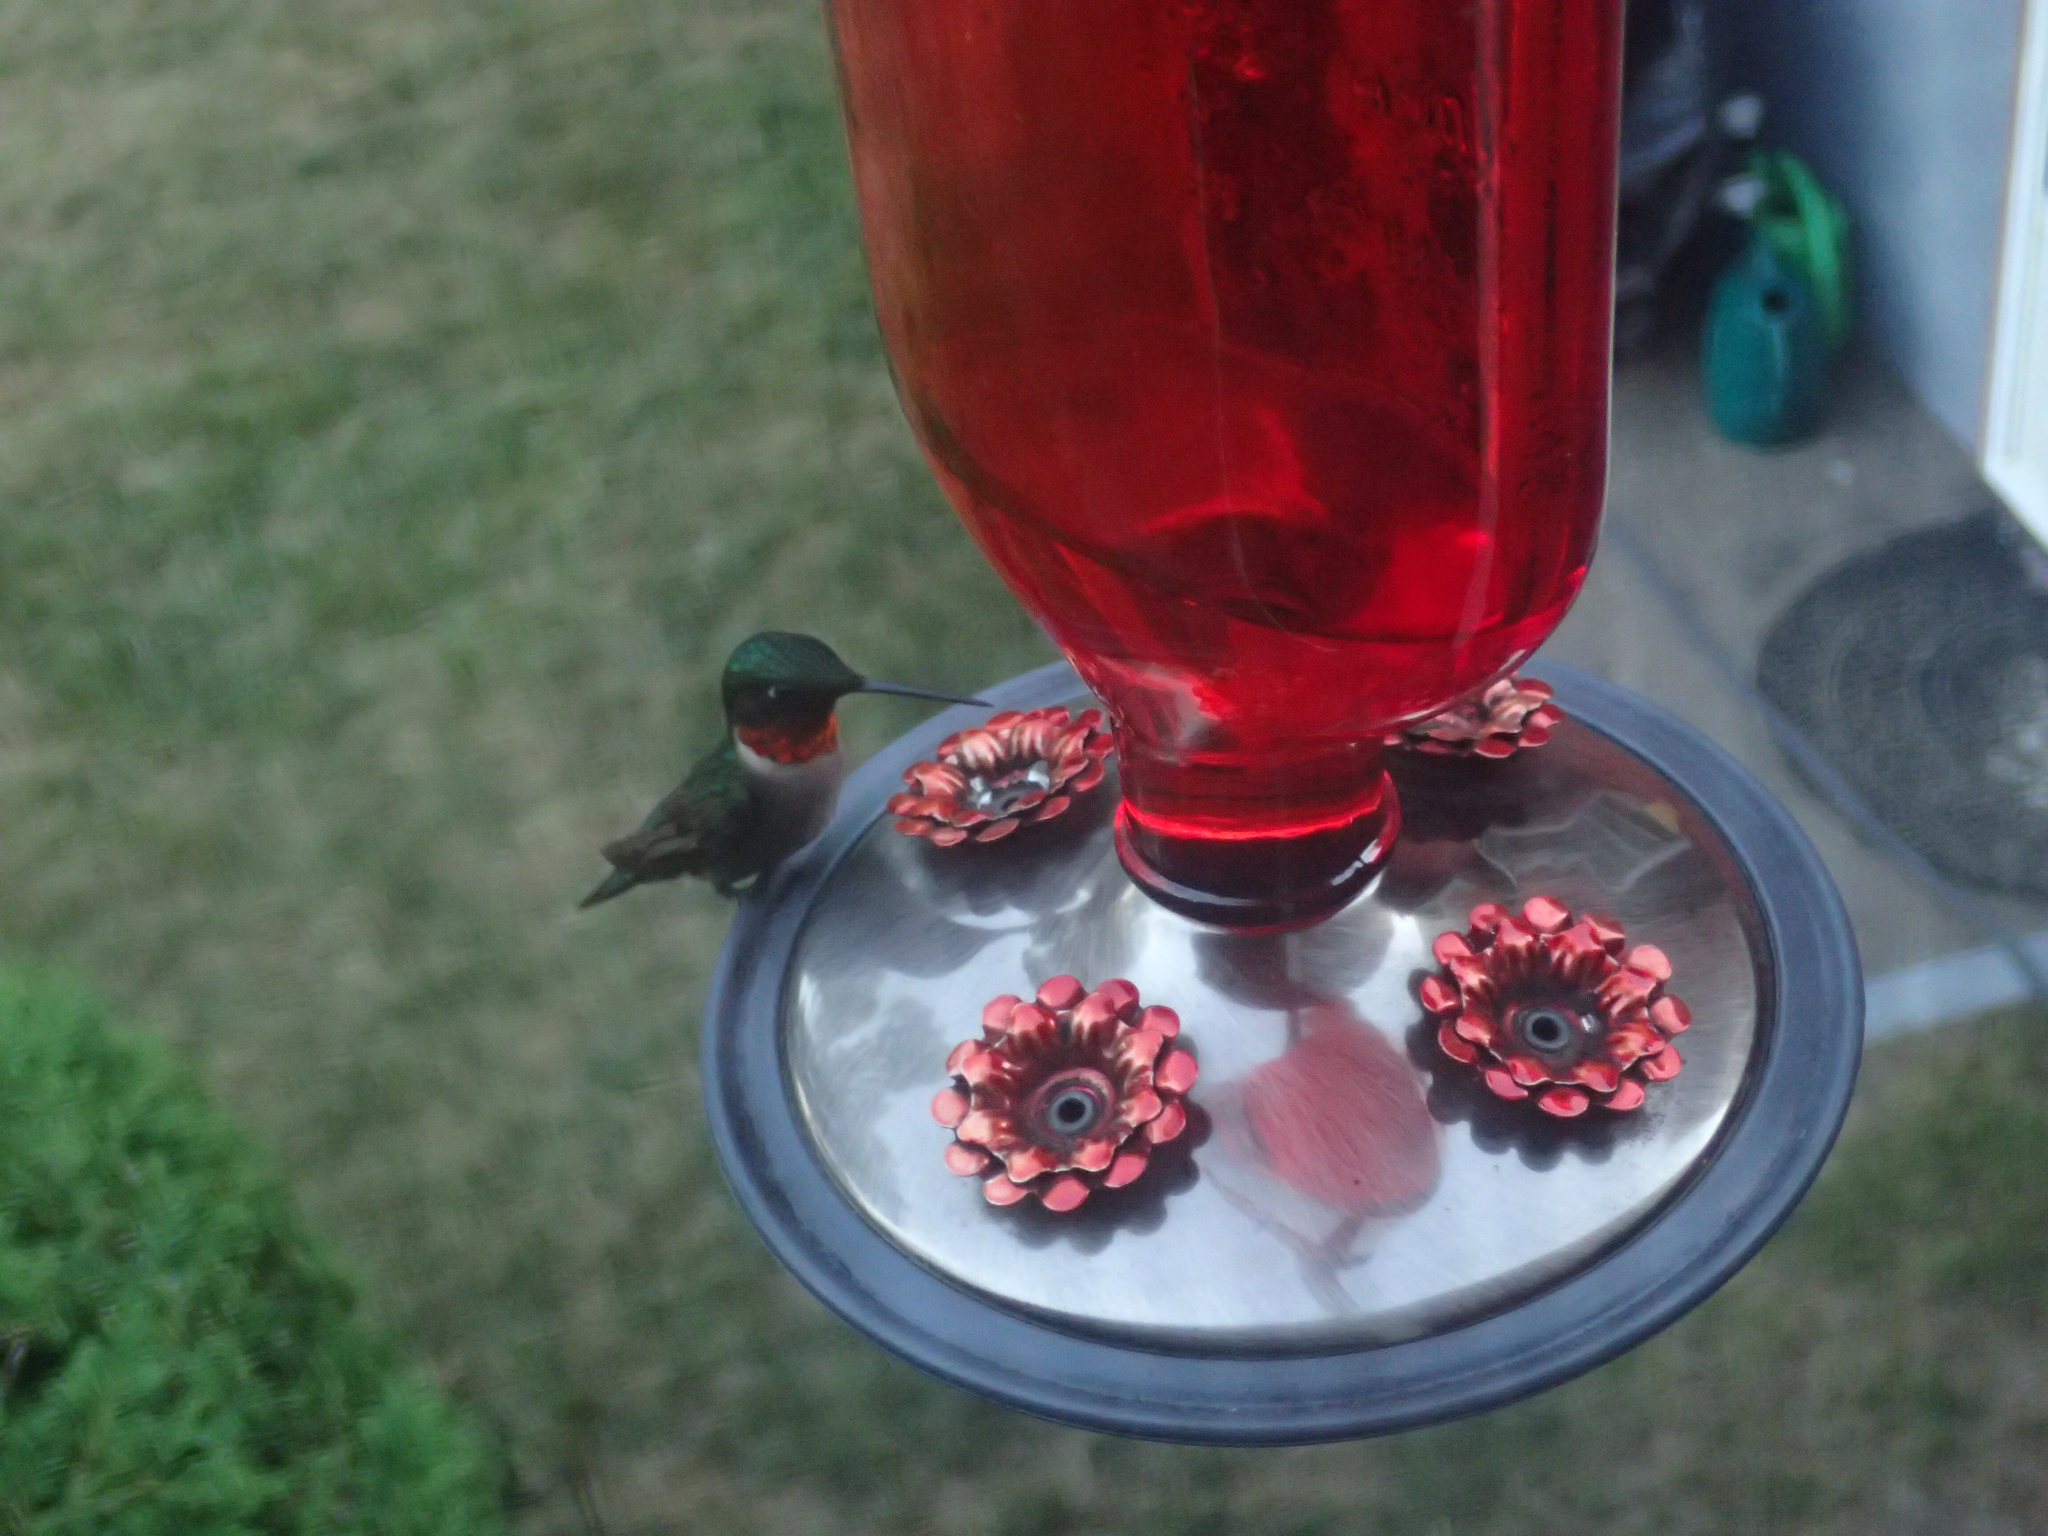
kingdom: Animalia
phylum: Chordata
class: Aves
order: Apodiformes
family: Trochilidae
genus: Archilochus
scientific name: Archilochus colubris
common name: Ruby-throated hummingbird
